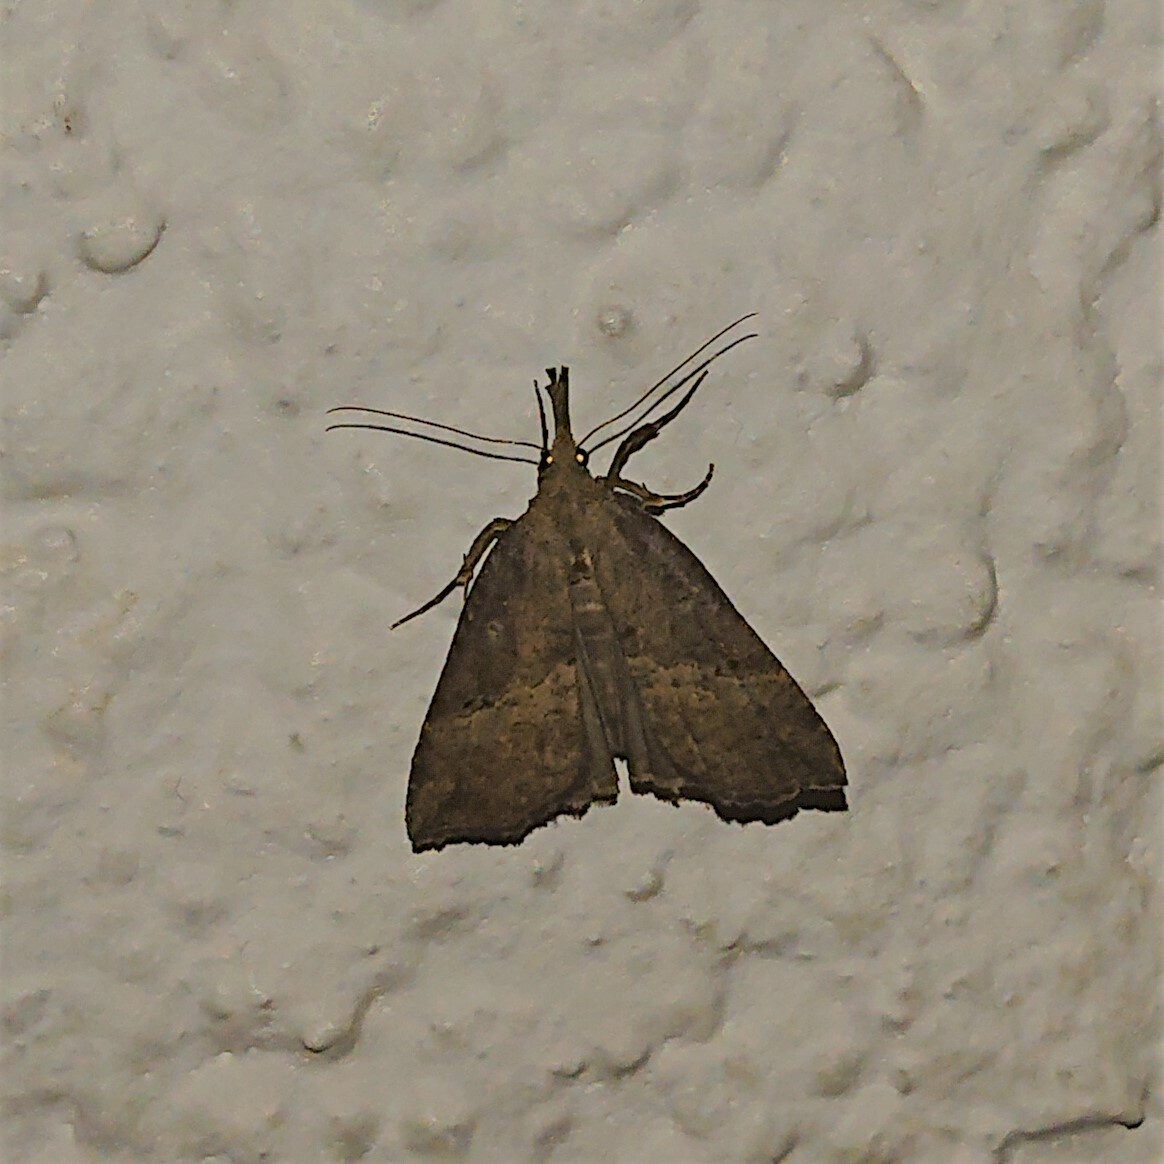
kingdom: Animalia
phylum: Arthropoda
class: Insecta
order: Lepidoptera
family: Erebidae
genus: Hypena
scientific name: Hypena rostralis
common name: Buttoned snout
